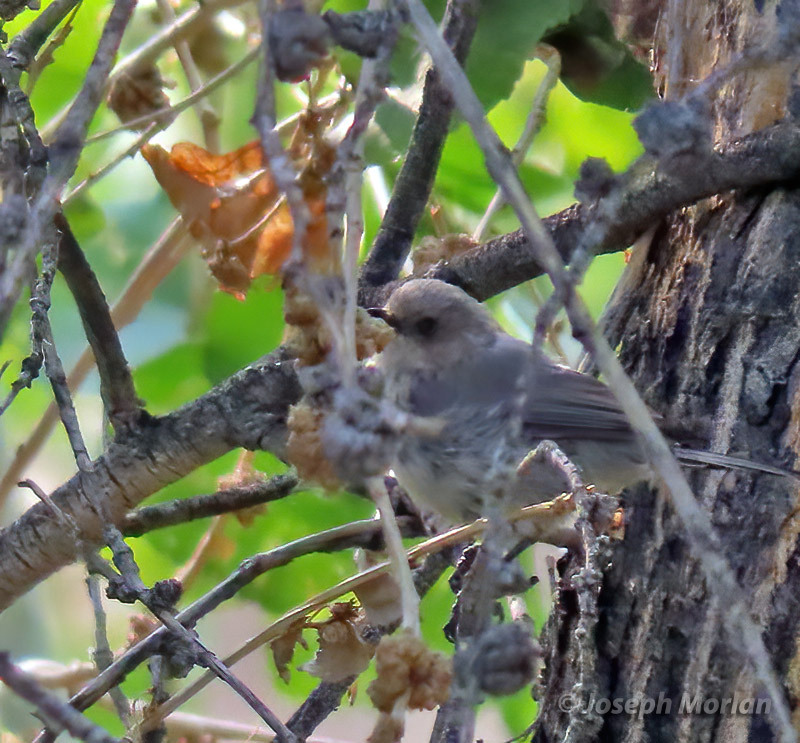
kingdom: Animalia
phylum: Chordata
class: Aves
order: Passeriformes
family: Aegithalidae
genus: Psaltriparus
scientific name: Psaltriparus minimus
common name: American bushtit
